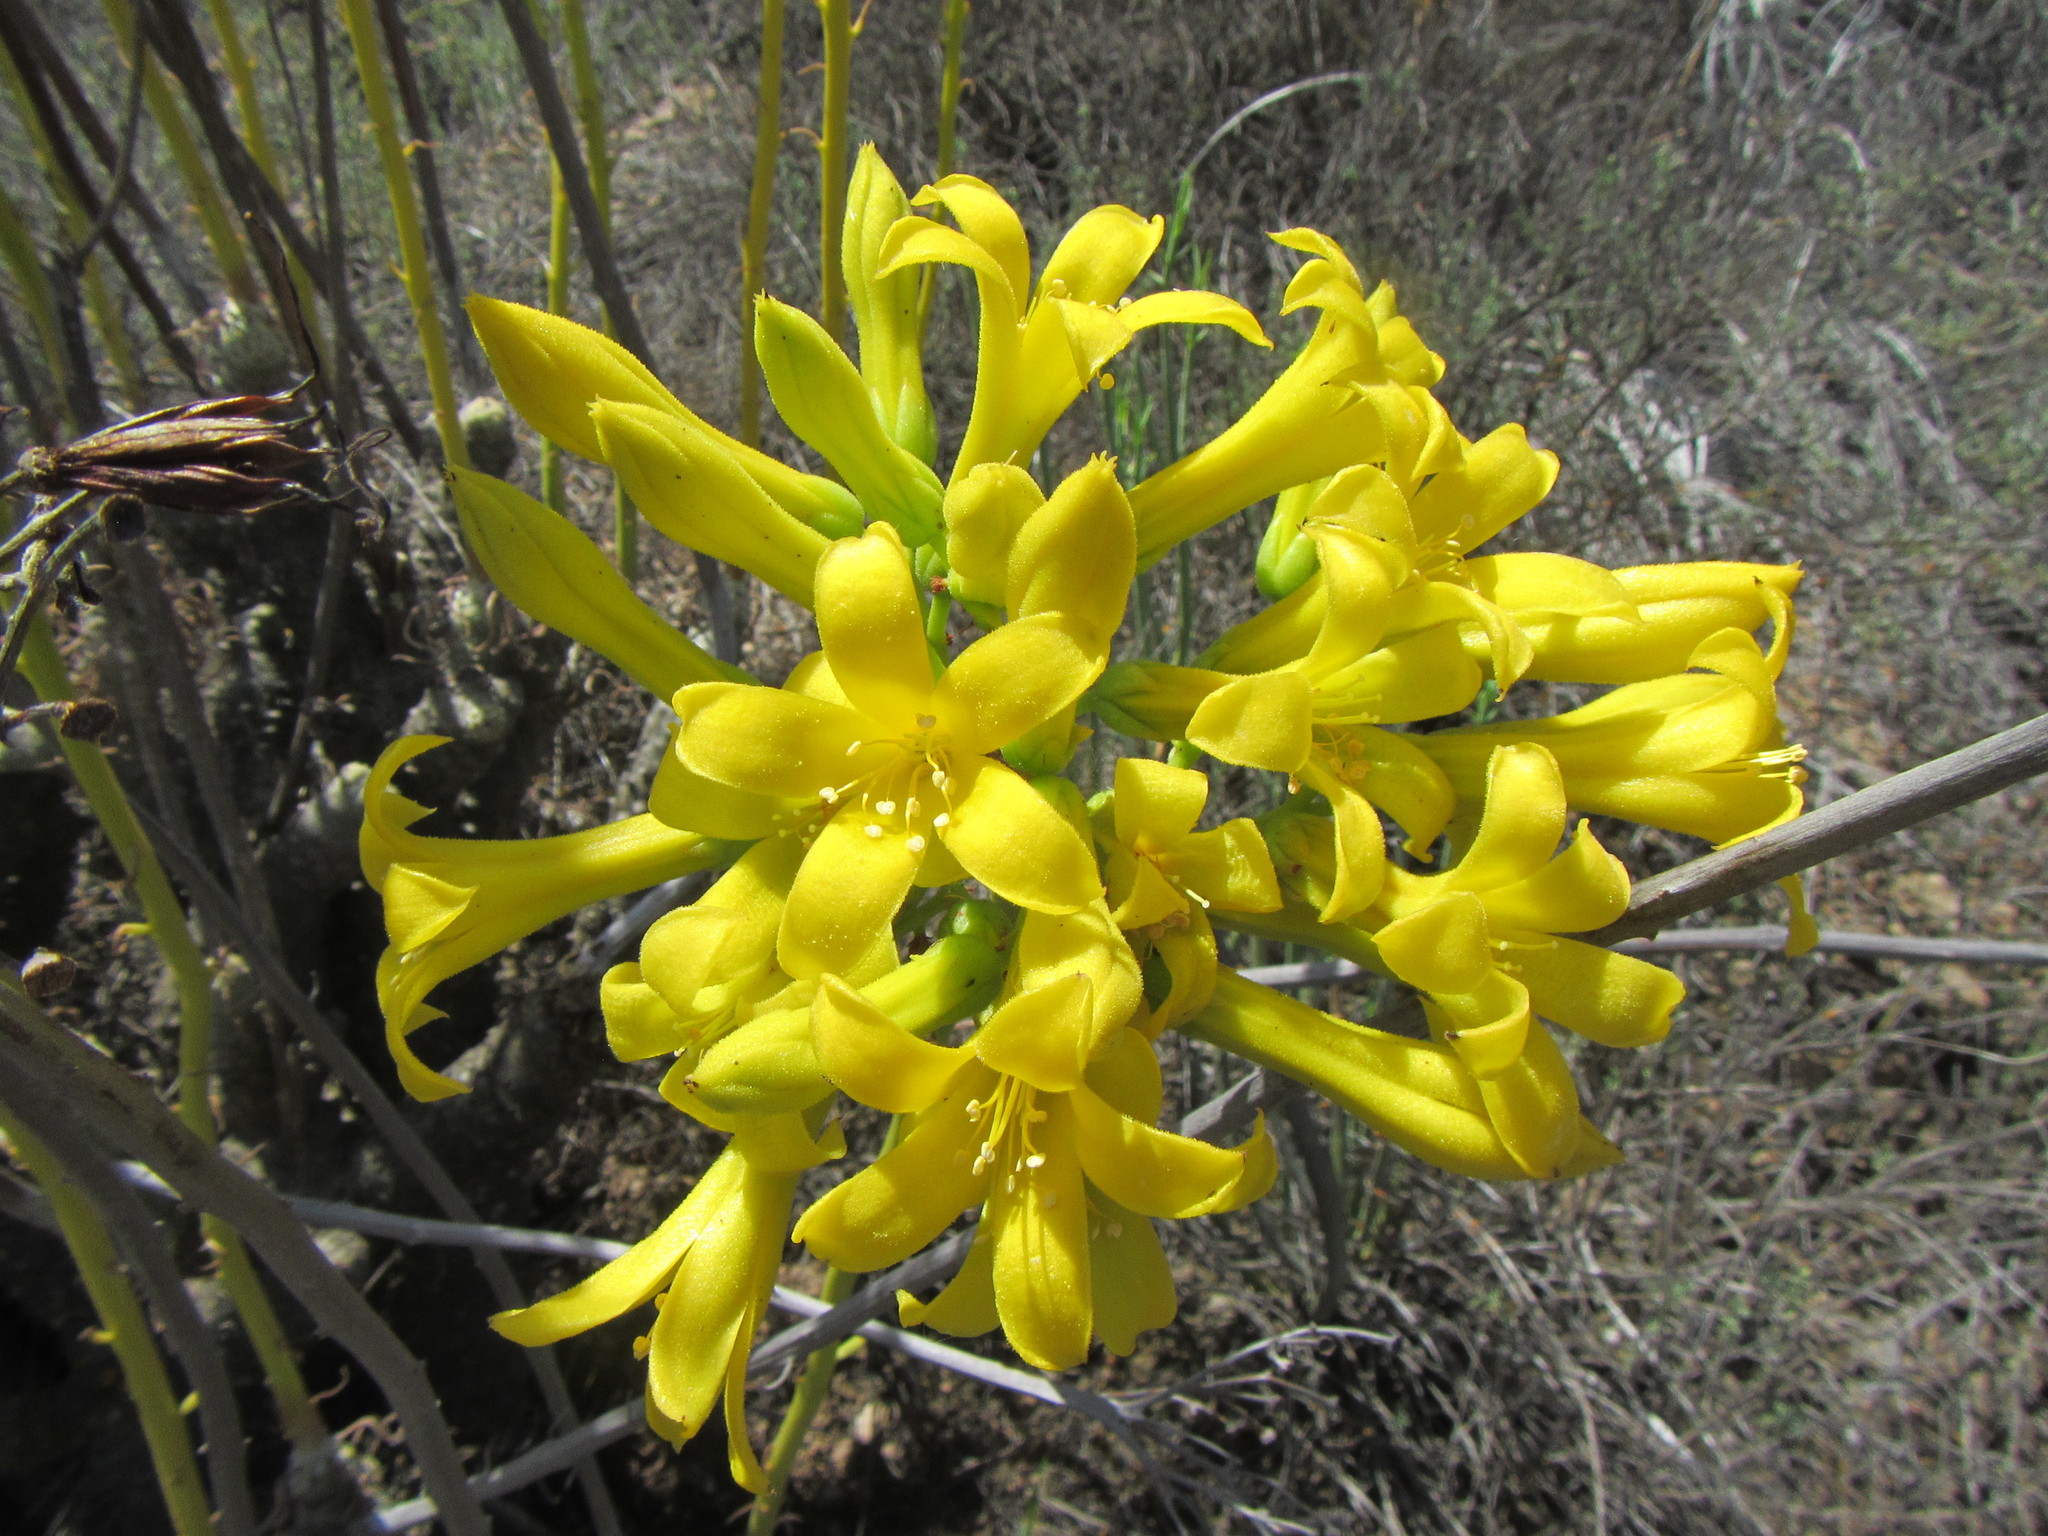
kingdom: Plantae
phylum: Tracheophyta
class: Magnoliopsida
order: Saxifragales
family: Crassulaceae
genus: Tylecodon
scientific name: Tylecodon cacaliodes
